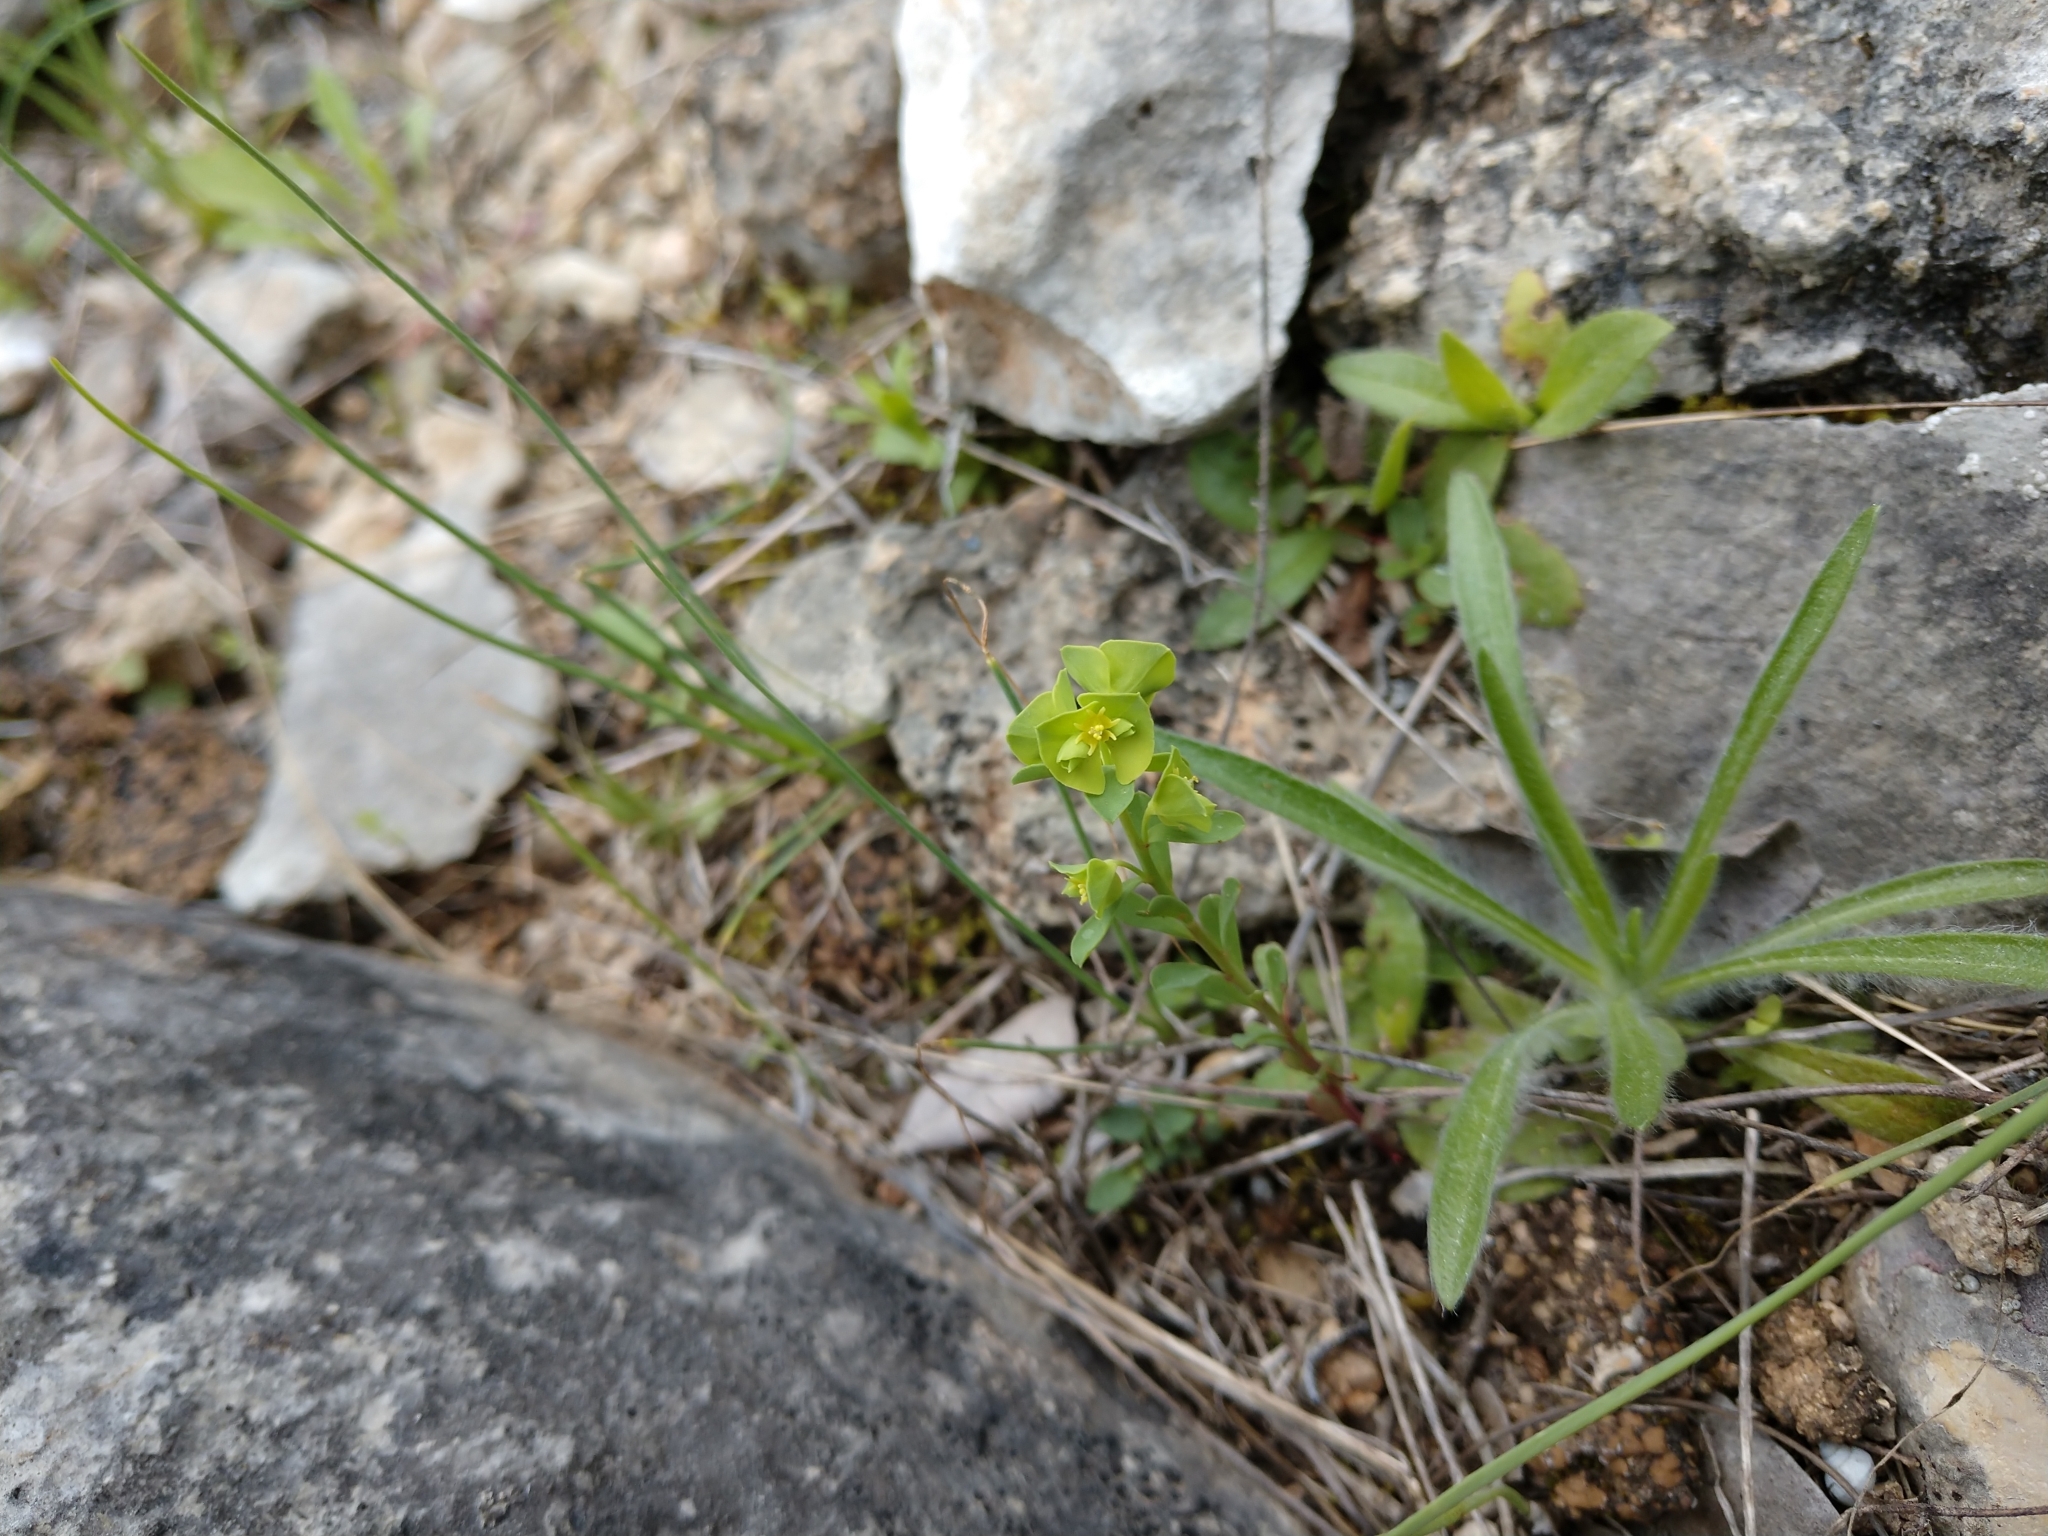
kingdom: Plantae
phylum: Tracheophyta
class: Magnoliopsida
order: Malpighiales
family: Euphorbiaceae
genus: Euphorbia
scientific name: Euphorbia longicruris
